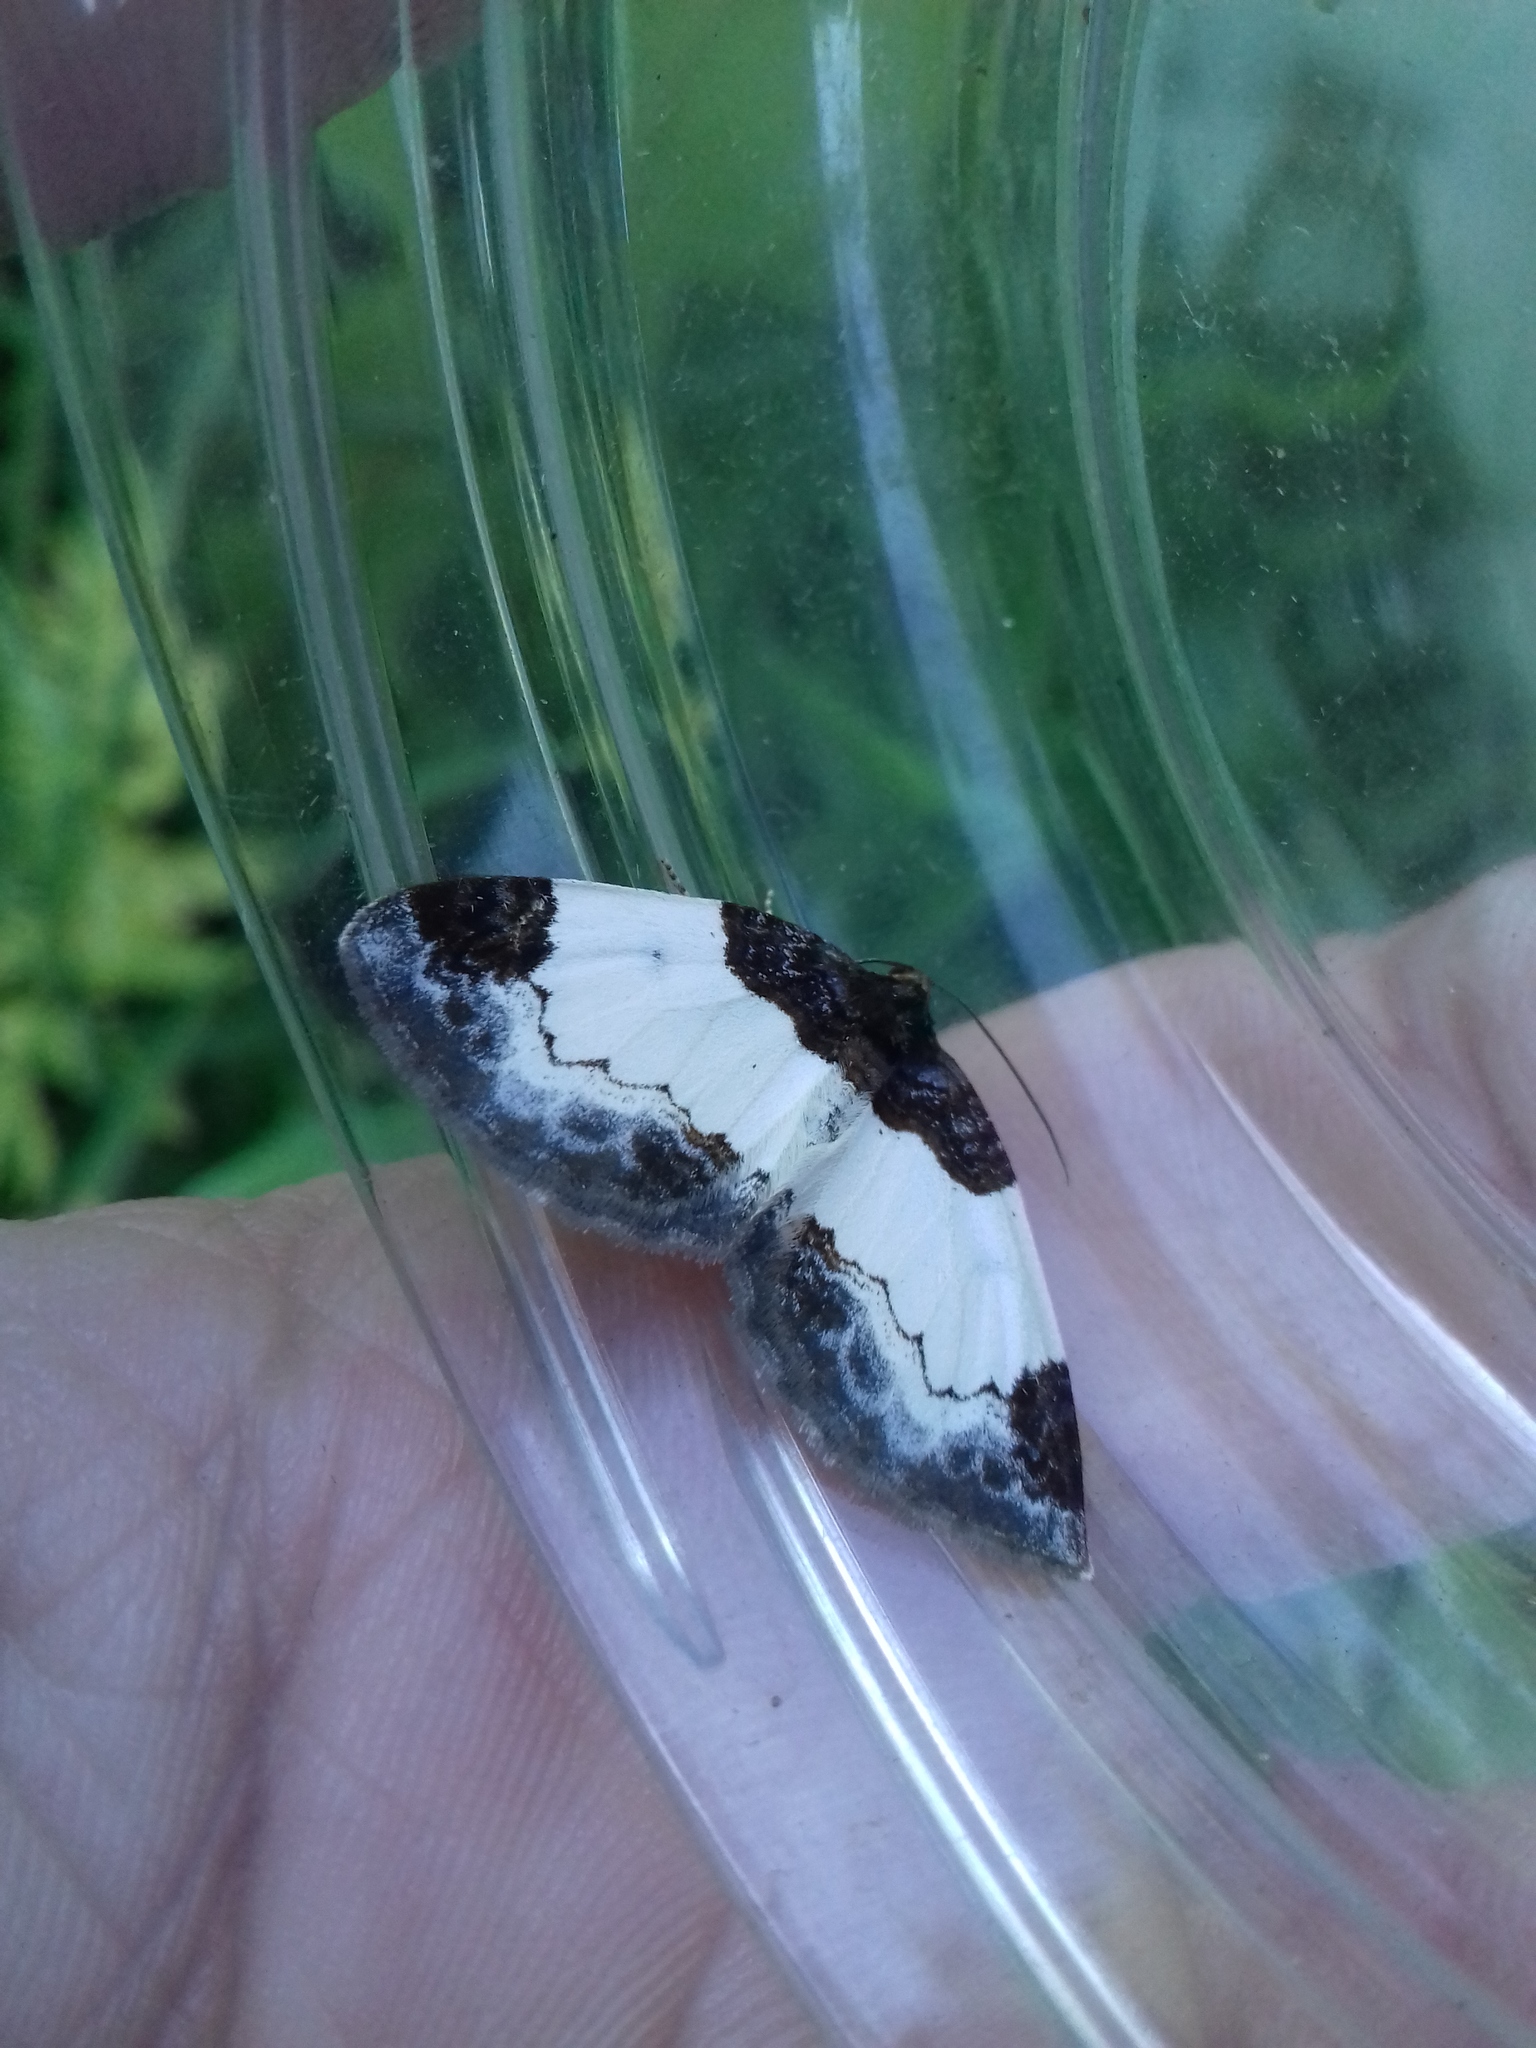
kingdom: Animalia
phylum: Arthropoda
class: Insecta
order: Lepidoptera
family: Geometridae
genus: Mesoleuca
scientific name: Mesoleuca albicillata
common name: Beautiful carpet
